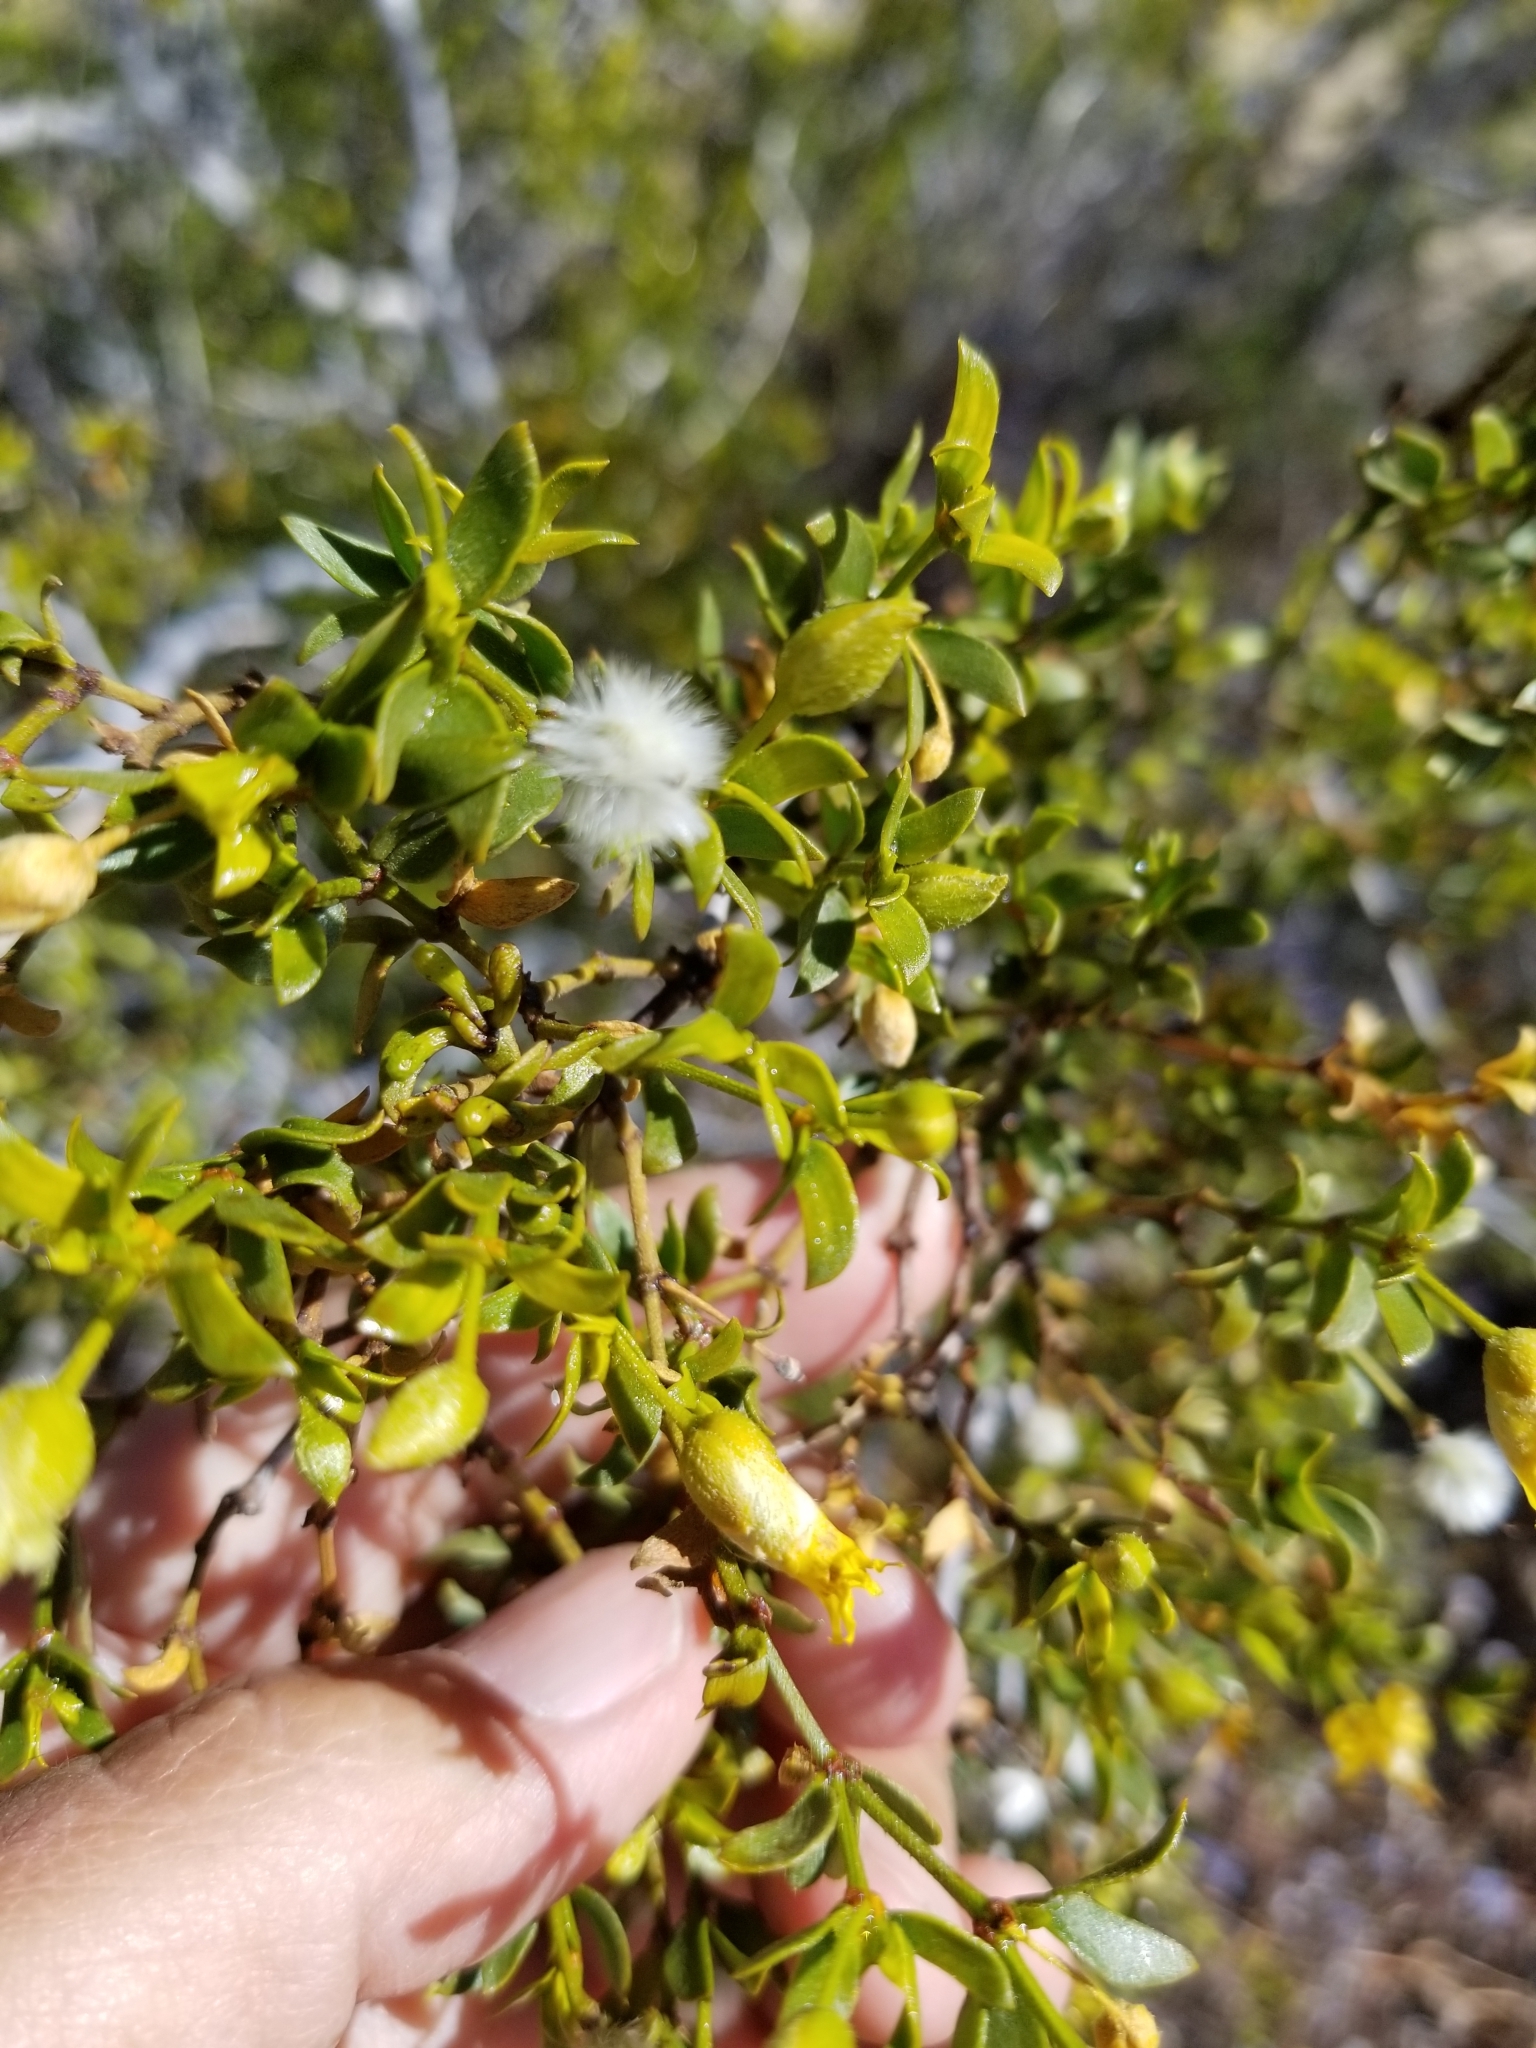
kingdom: Plantae
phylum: Tracheophyta
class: Magnoliopsida
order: Zygophyllales
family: Zygophyllaceae
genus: Larrea
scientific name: Larrea tridentata
